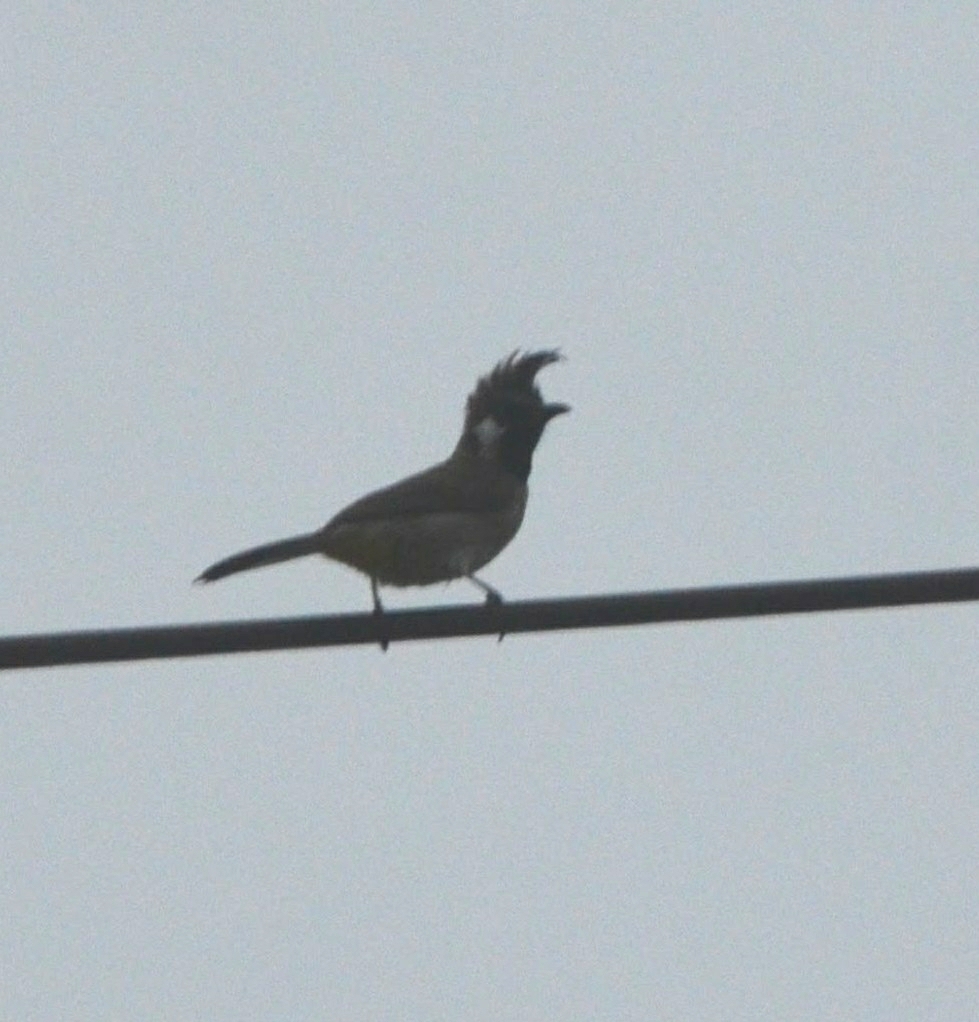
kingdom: Animalia
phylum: Chordata
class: Aves
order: Passeriformes
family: Pycnonotidae
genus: Pycnonotus
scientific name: Pycnonotus leucogenys
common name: Himalayan bulbul
